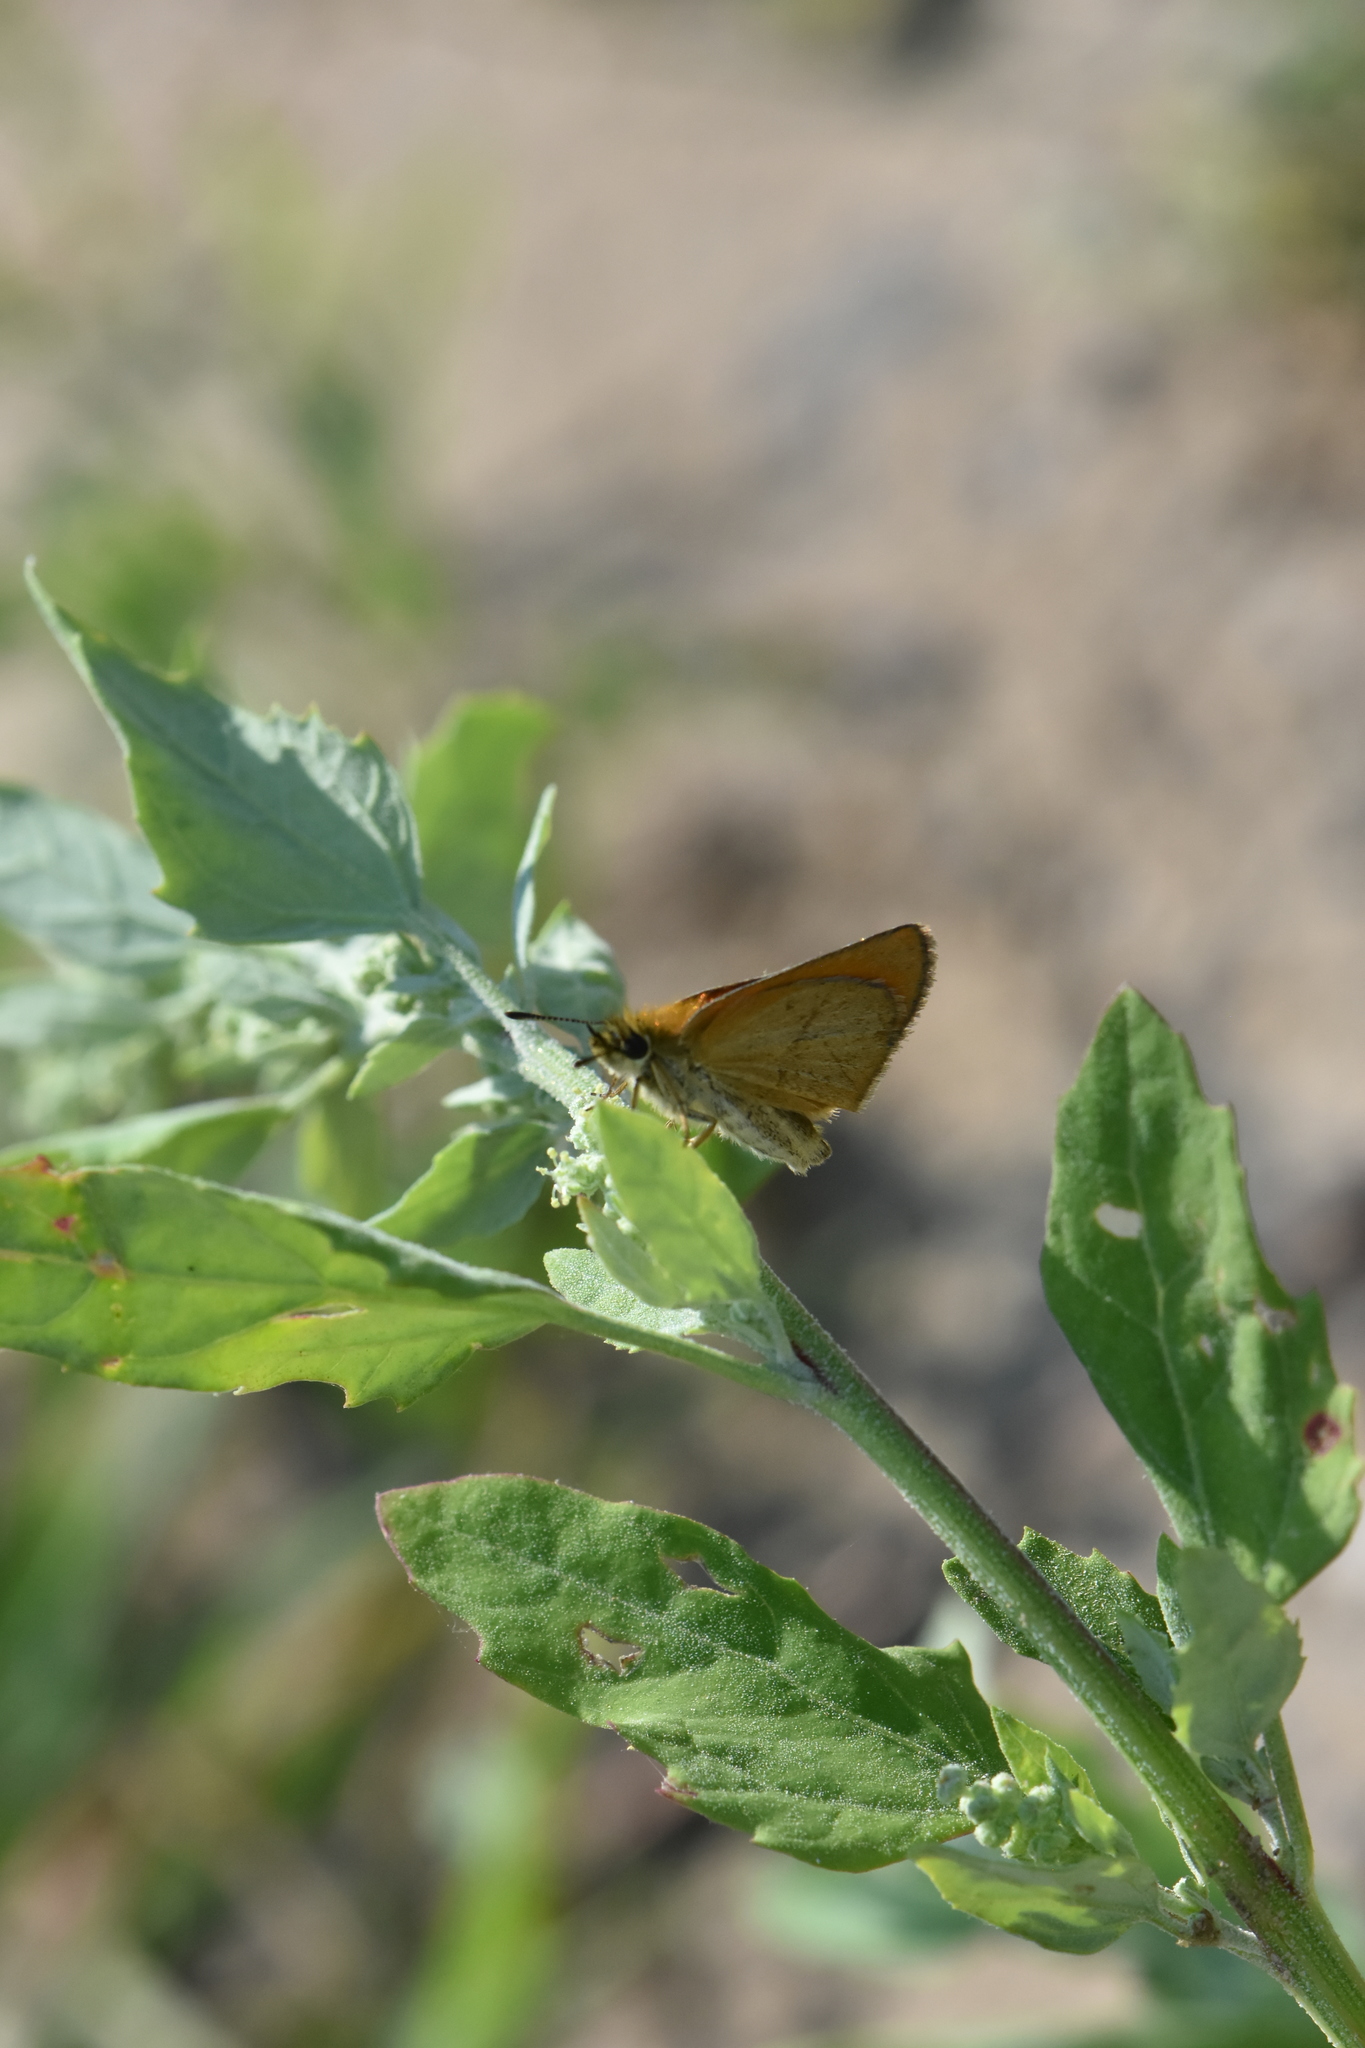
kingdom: Animalia
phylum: Arthropoda
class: Insecta
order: Lepidoptera
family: Hesperiidae
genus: Thymelicus
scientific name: Thymelicus lineola
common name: Essex skipper
